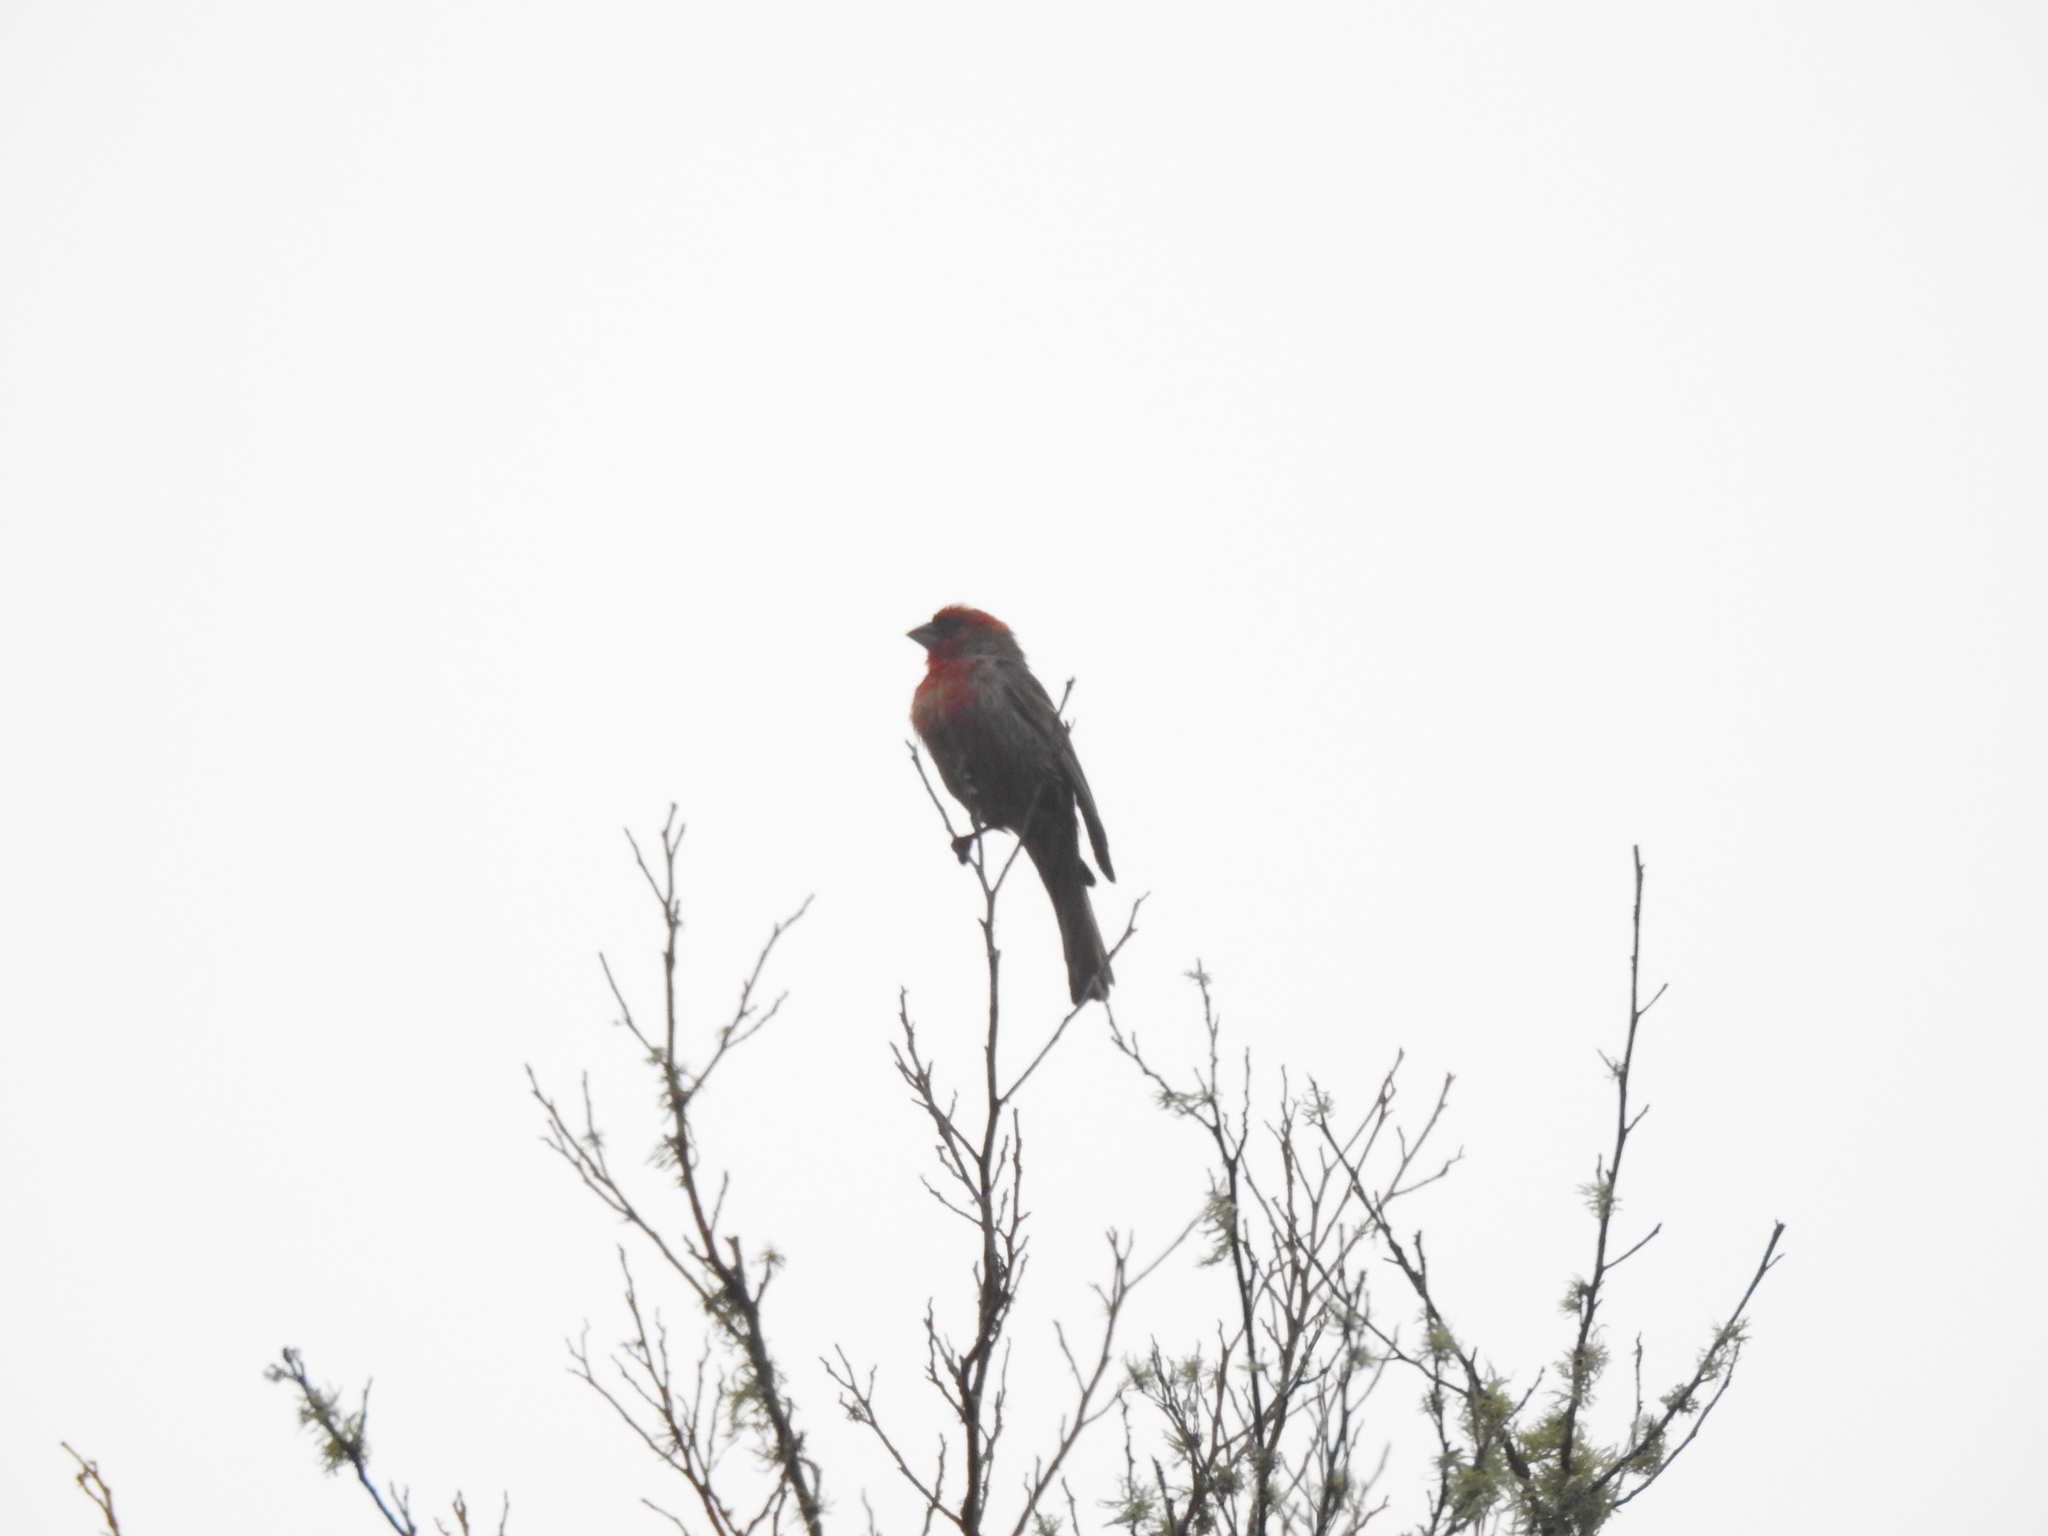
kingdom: Animalia
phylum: Chordata
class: Aves
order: Passeriformes
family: Fringillidae
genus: Haemorhous
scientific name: Haemorhous mexicanus
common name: House finch
